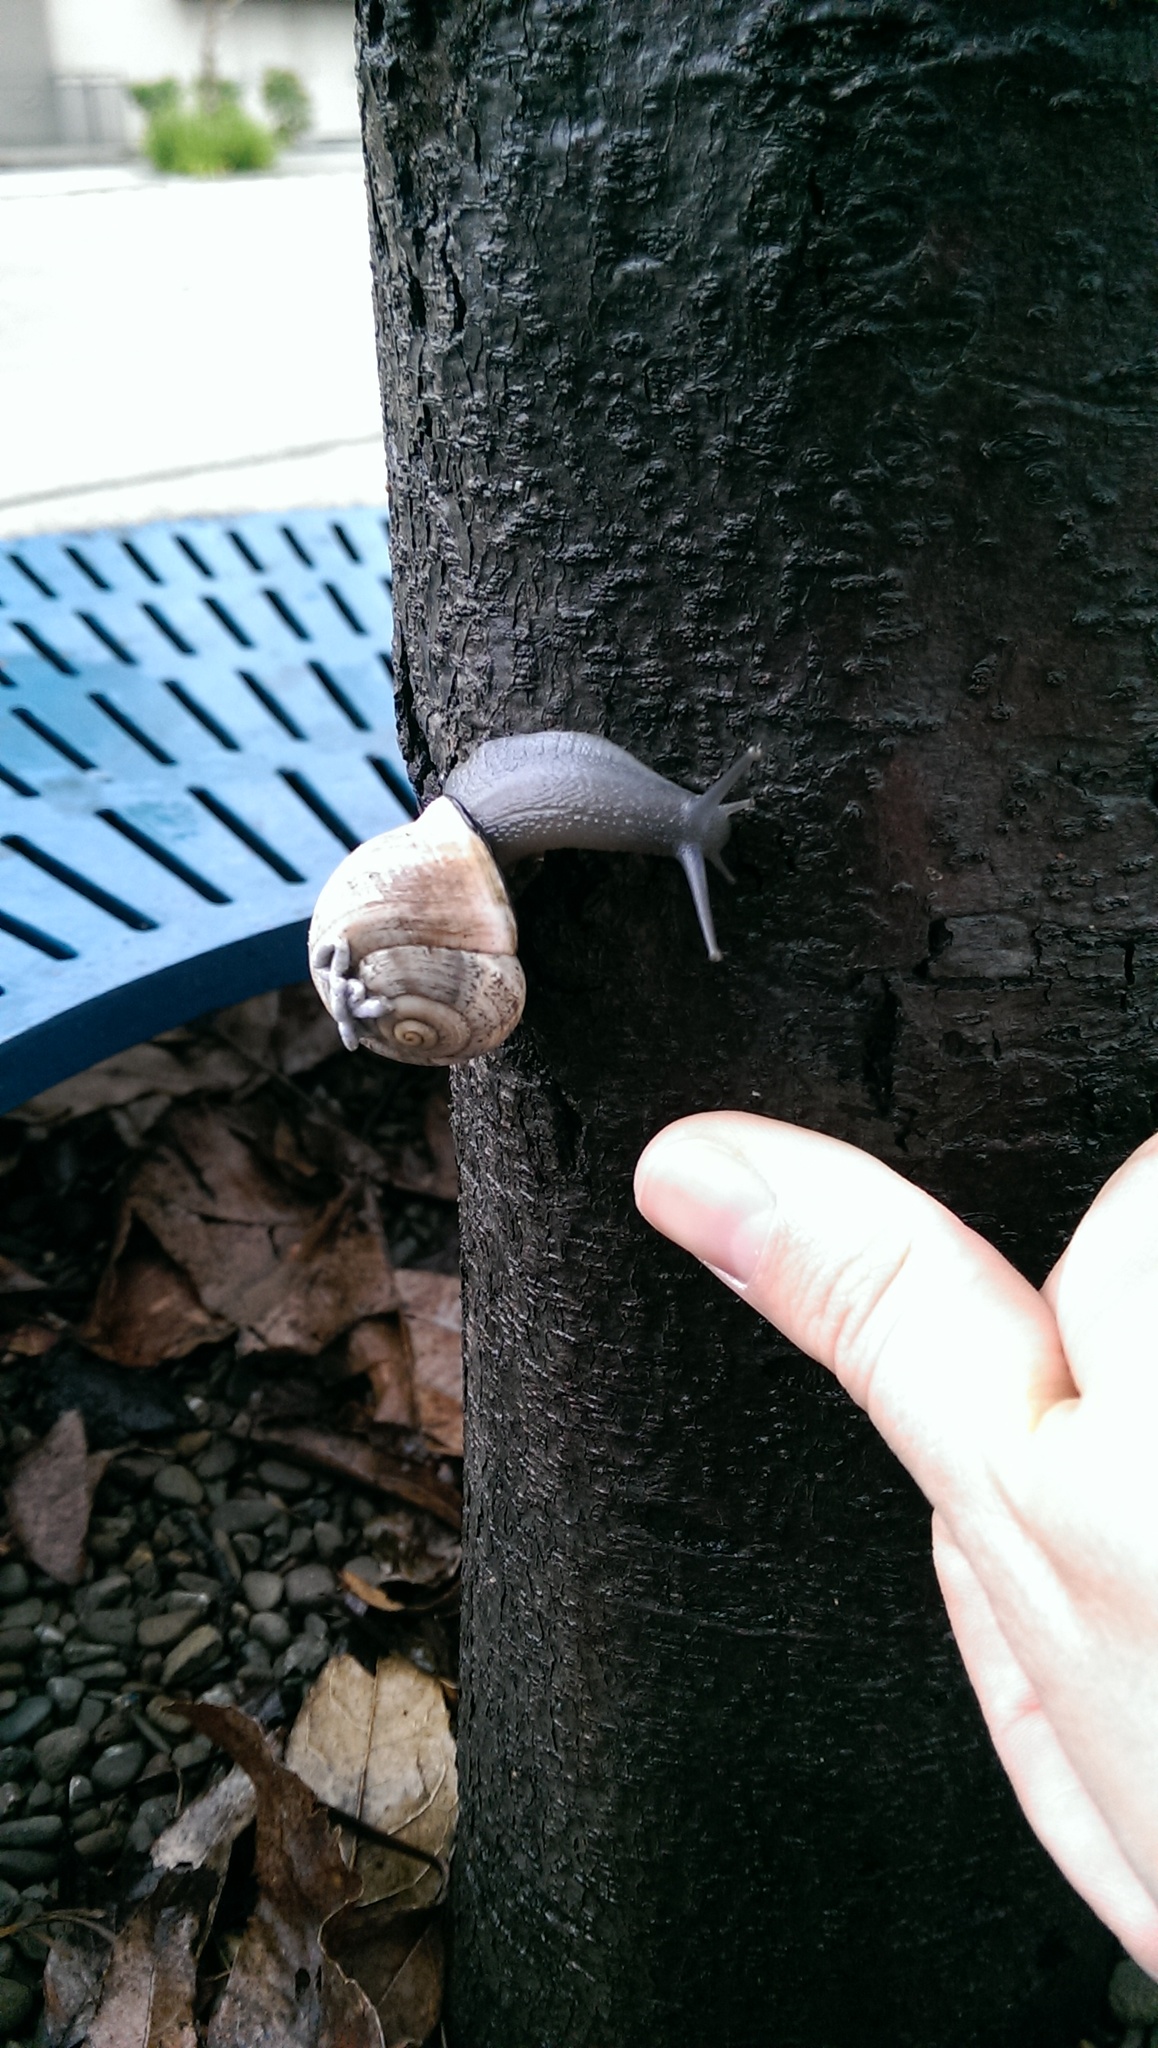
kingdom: Animalia
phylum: Mollusca
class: Gastropoda
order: Stylommatophora
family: Helicidae
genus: Otala
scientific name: Otala lactea
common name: Milk snail
